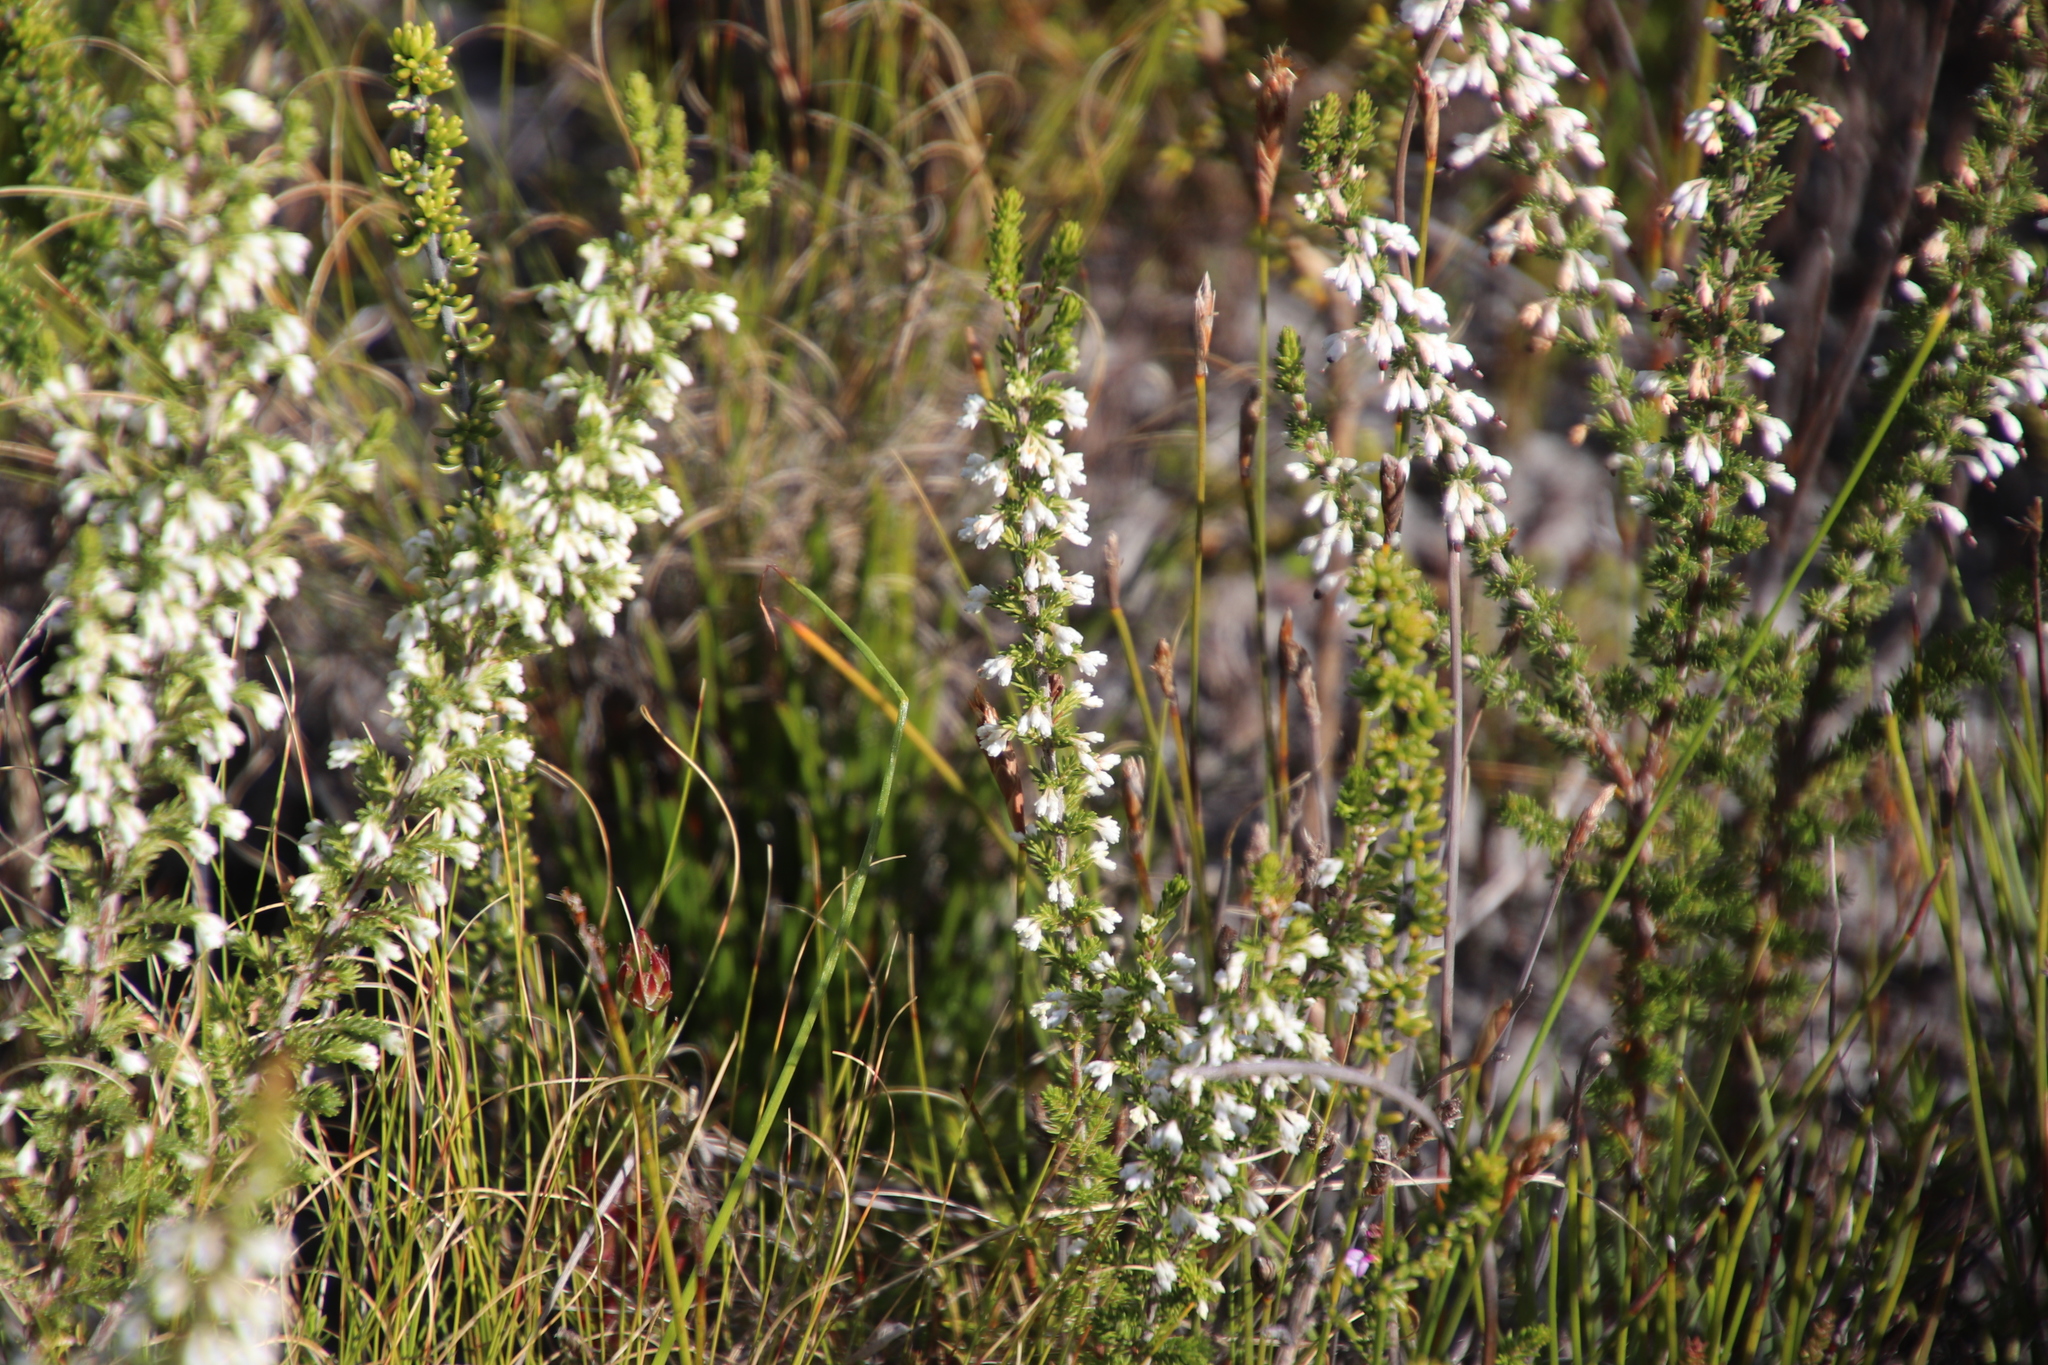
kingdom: Plantae
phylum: Tracheophyta
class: Magnoliopsida
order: Ericales
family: Ericaceae
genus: Erica
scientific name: Erica imbricata
